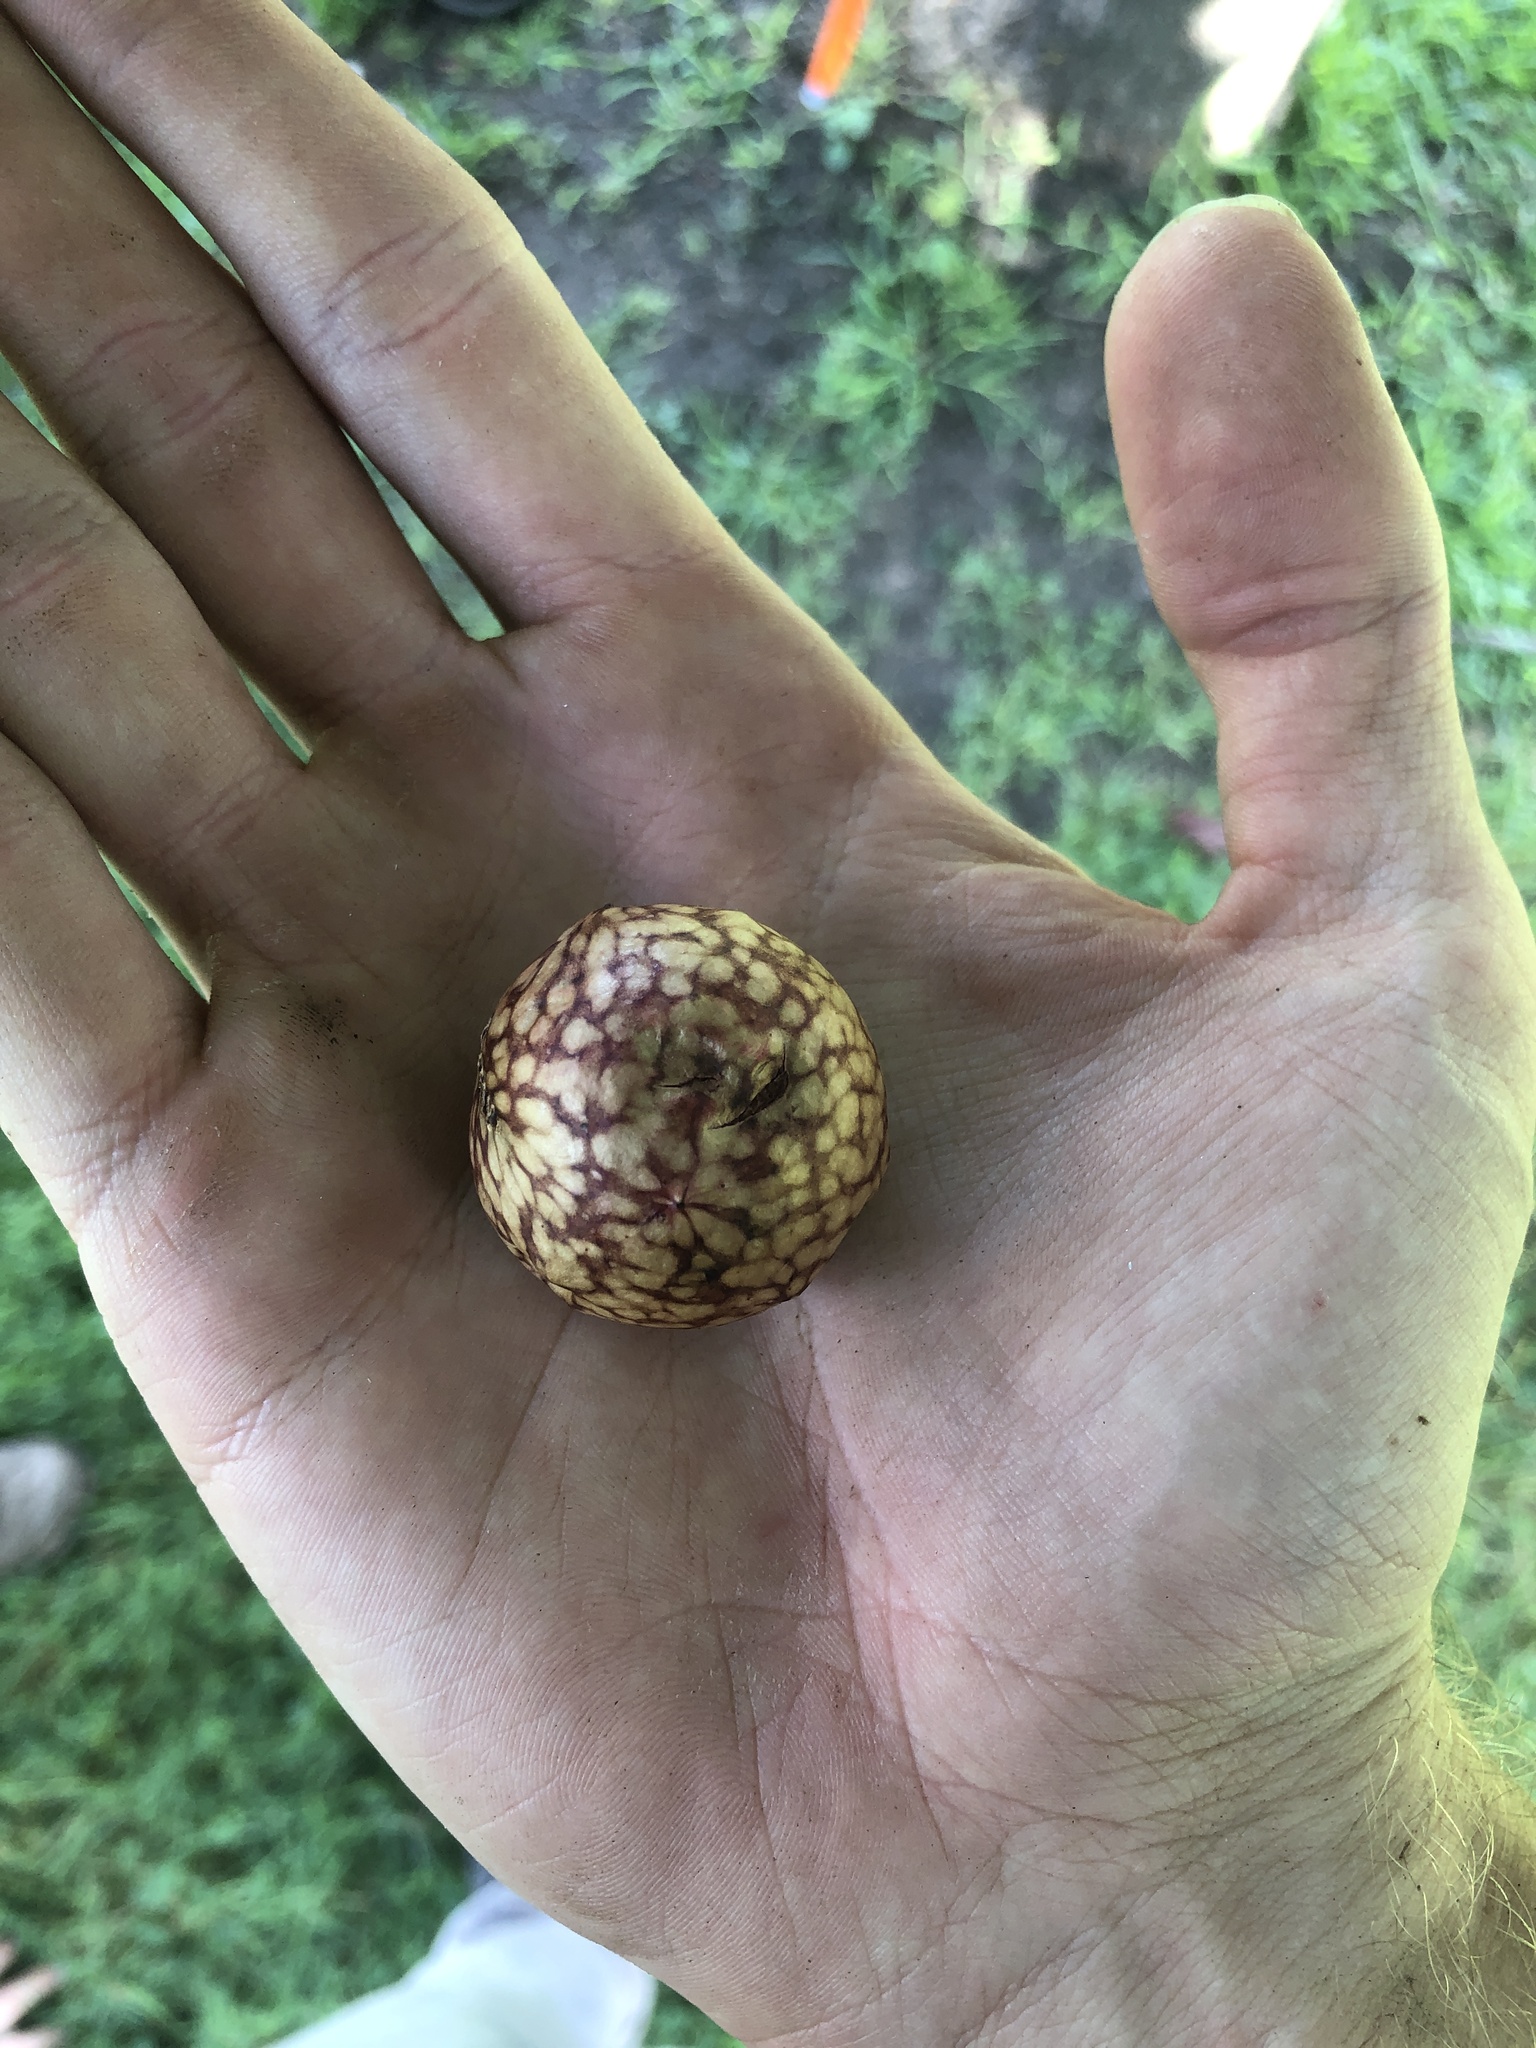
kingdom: Animalia
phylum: Arthropoda
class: Insecta
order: Hymenoptera
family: Cynipidae
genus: Amphibolips
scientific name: Amphibolips
